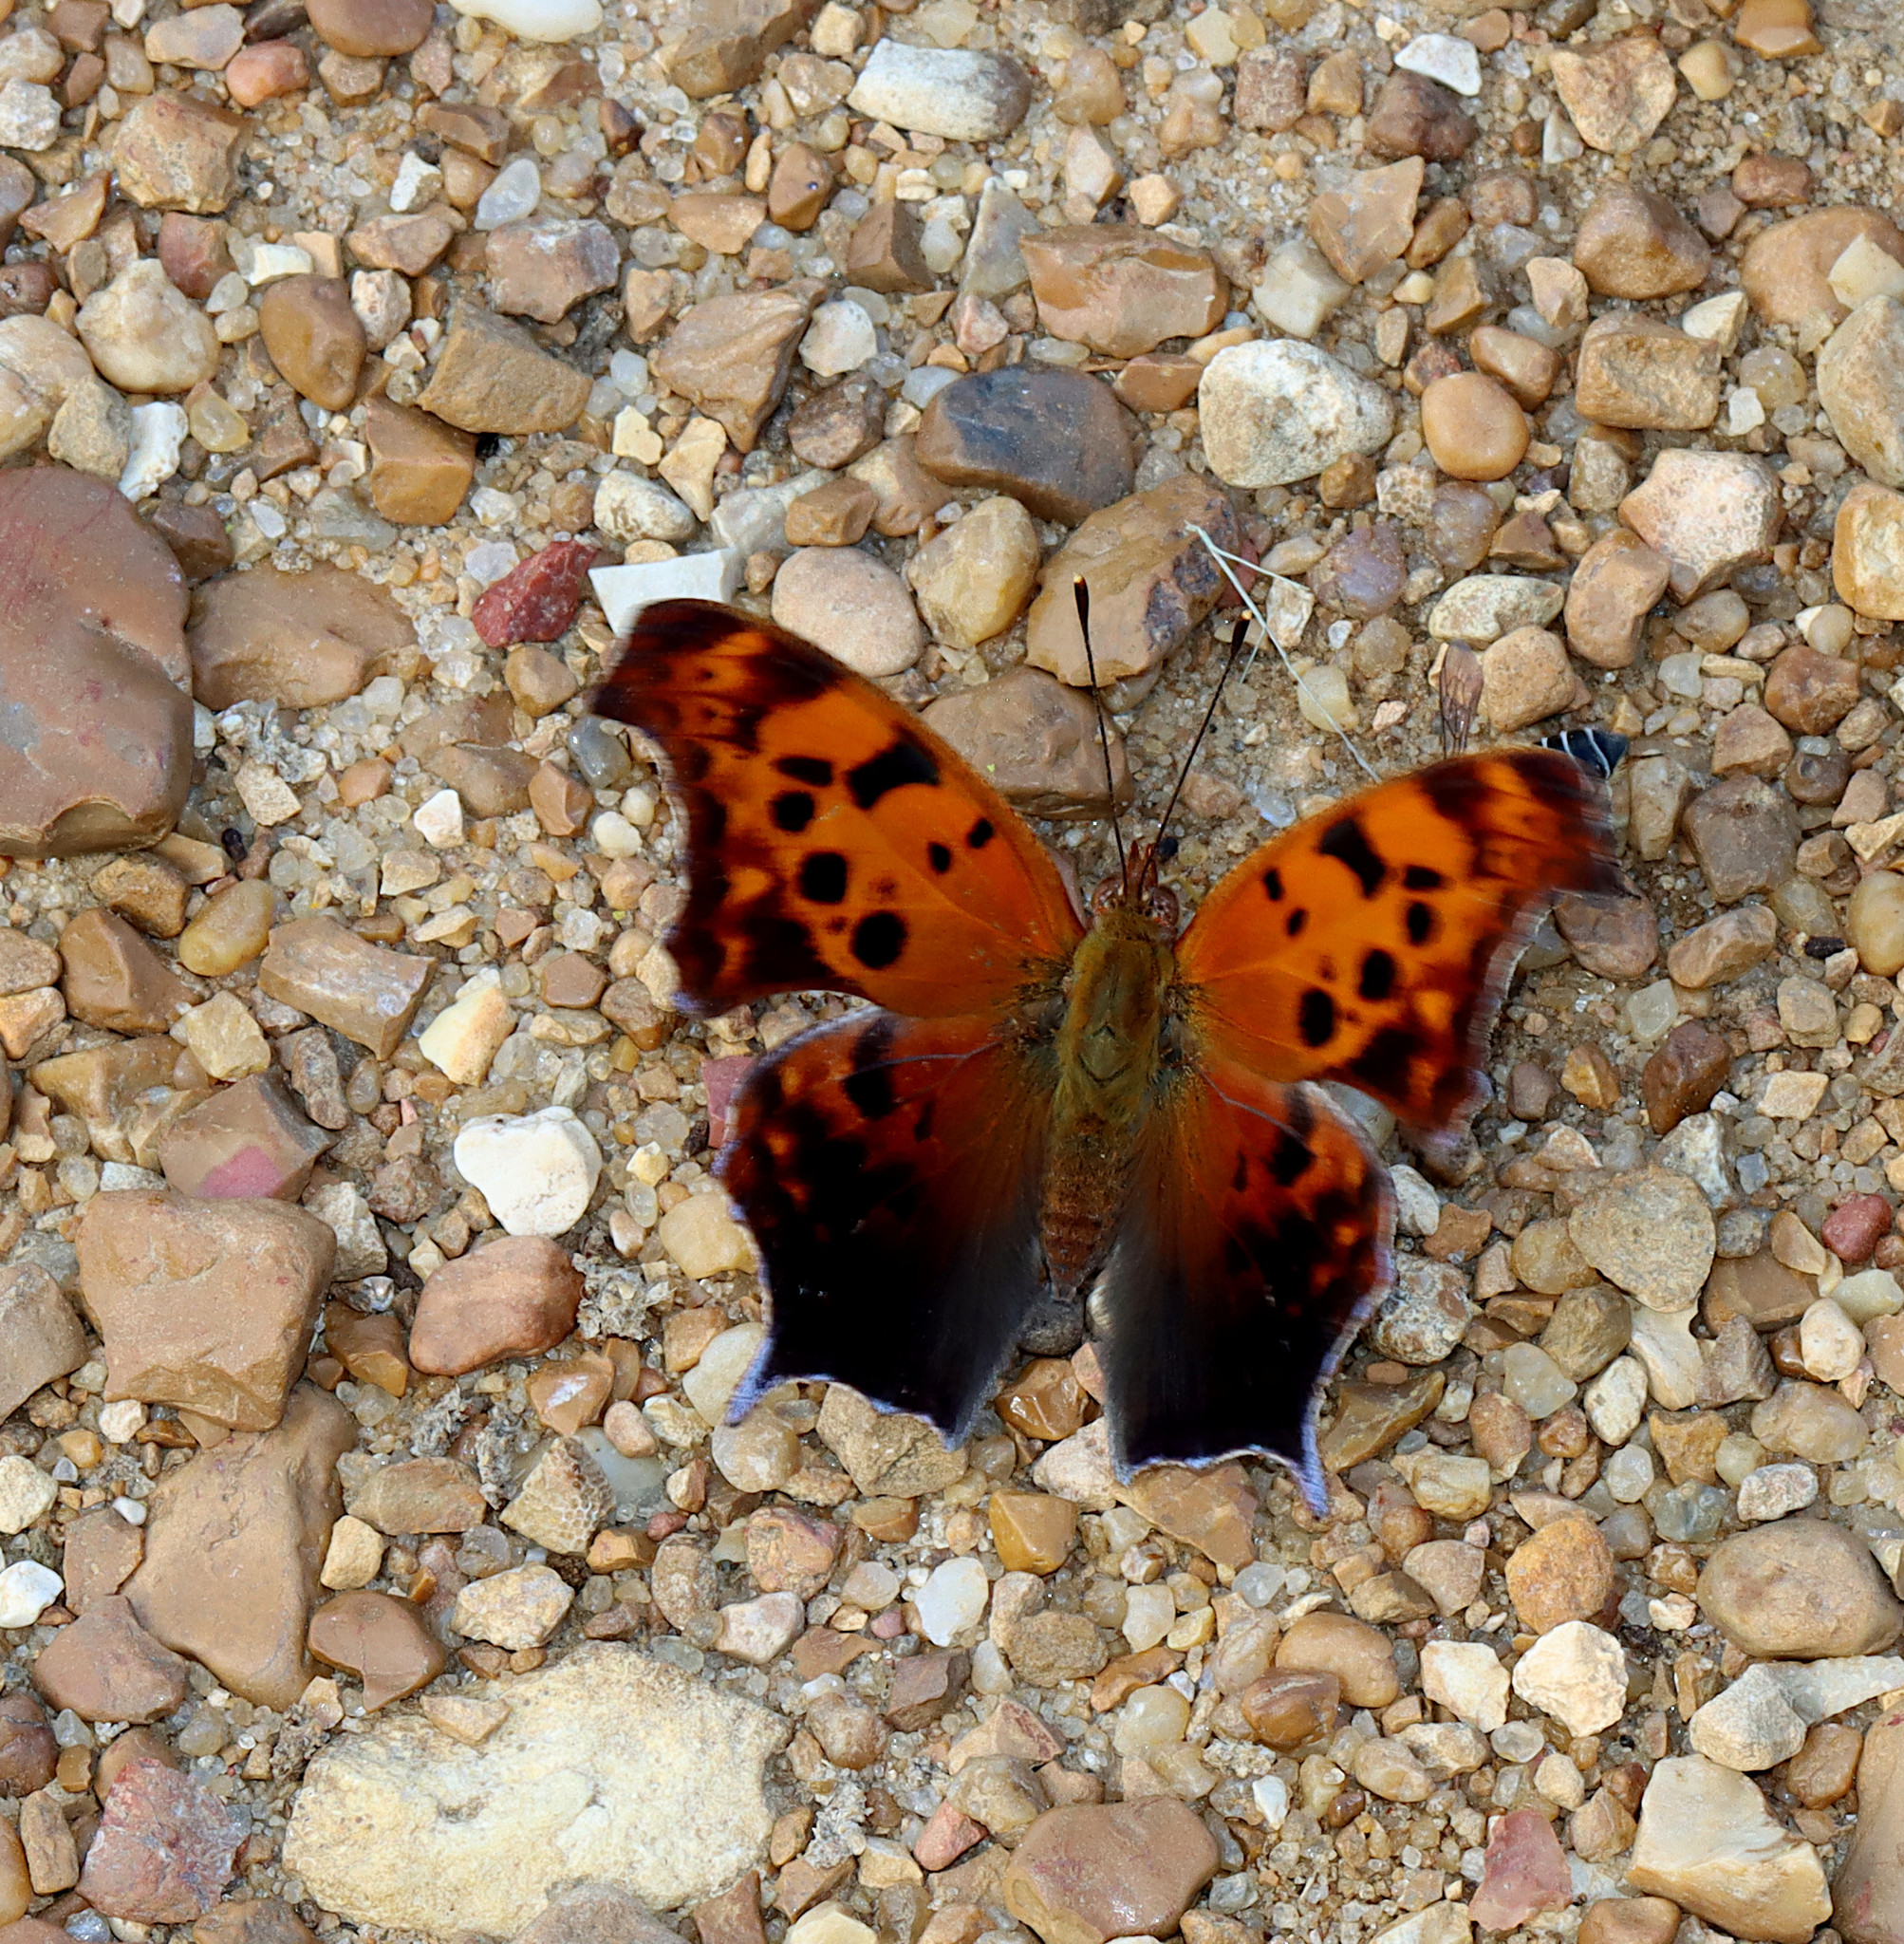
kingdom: Animalia
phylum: Arthropoda
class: Insecta
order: Lepidoptera
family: Nymphalidae
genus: Polygonia
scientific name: Polygonia interrogationis
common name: Question mark
